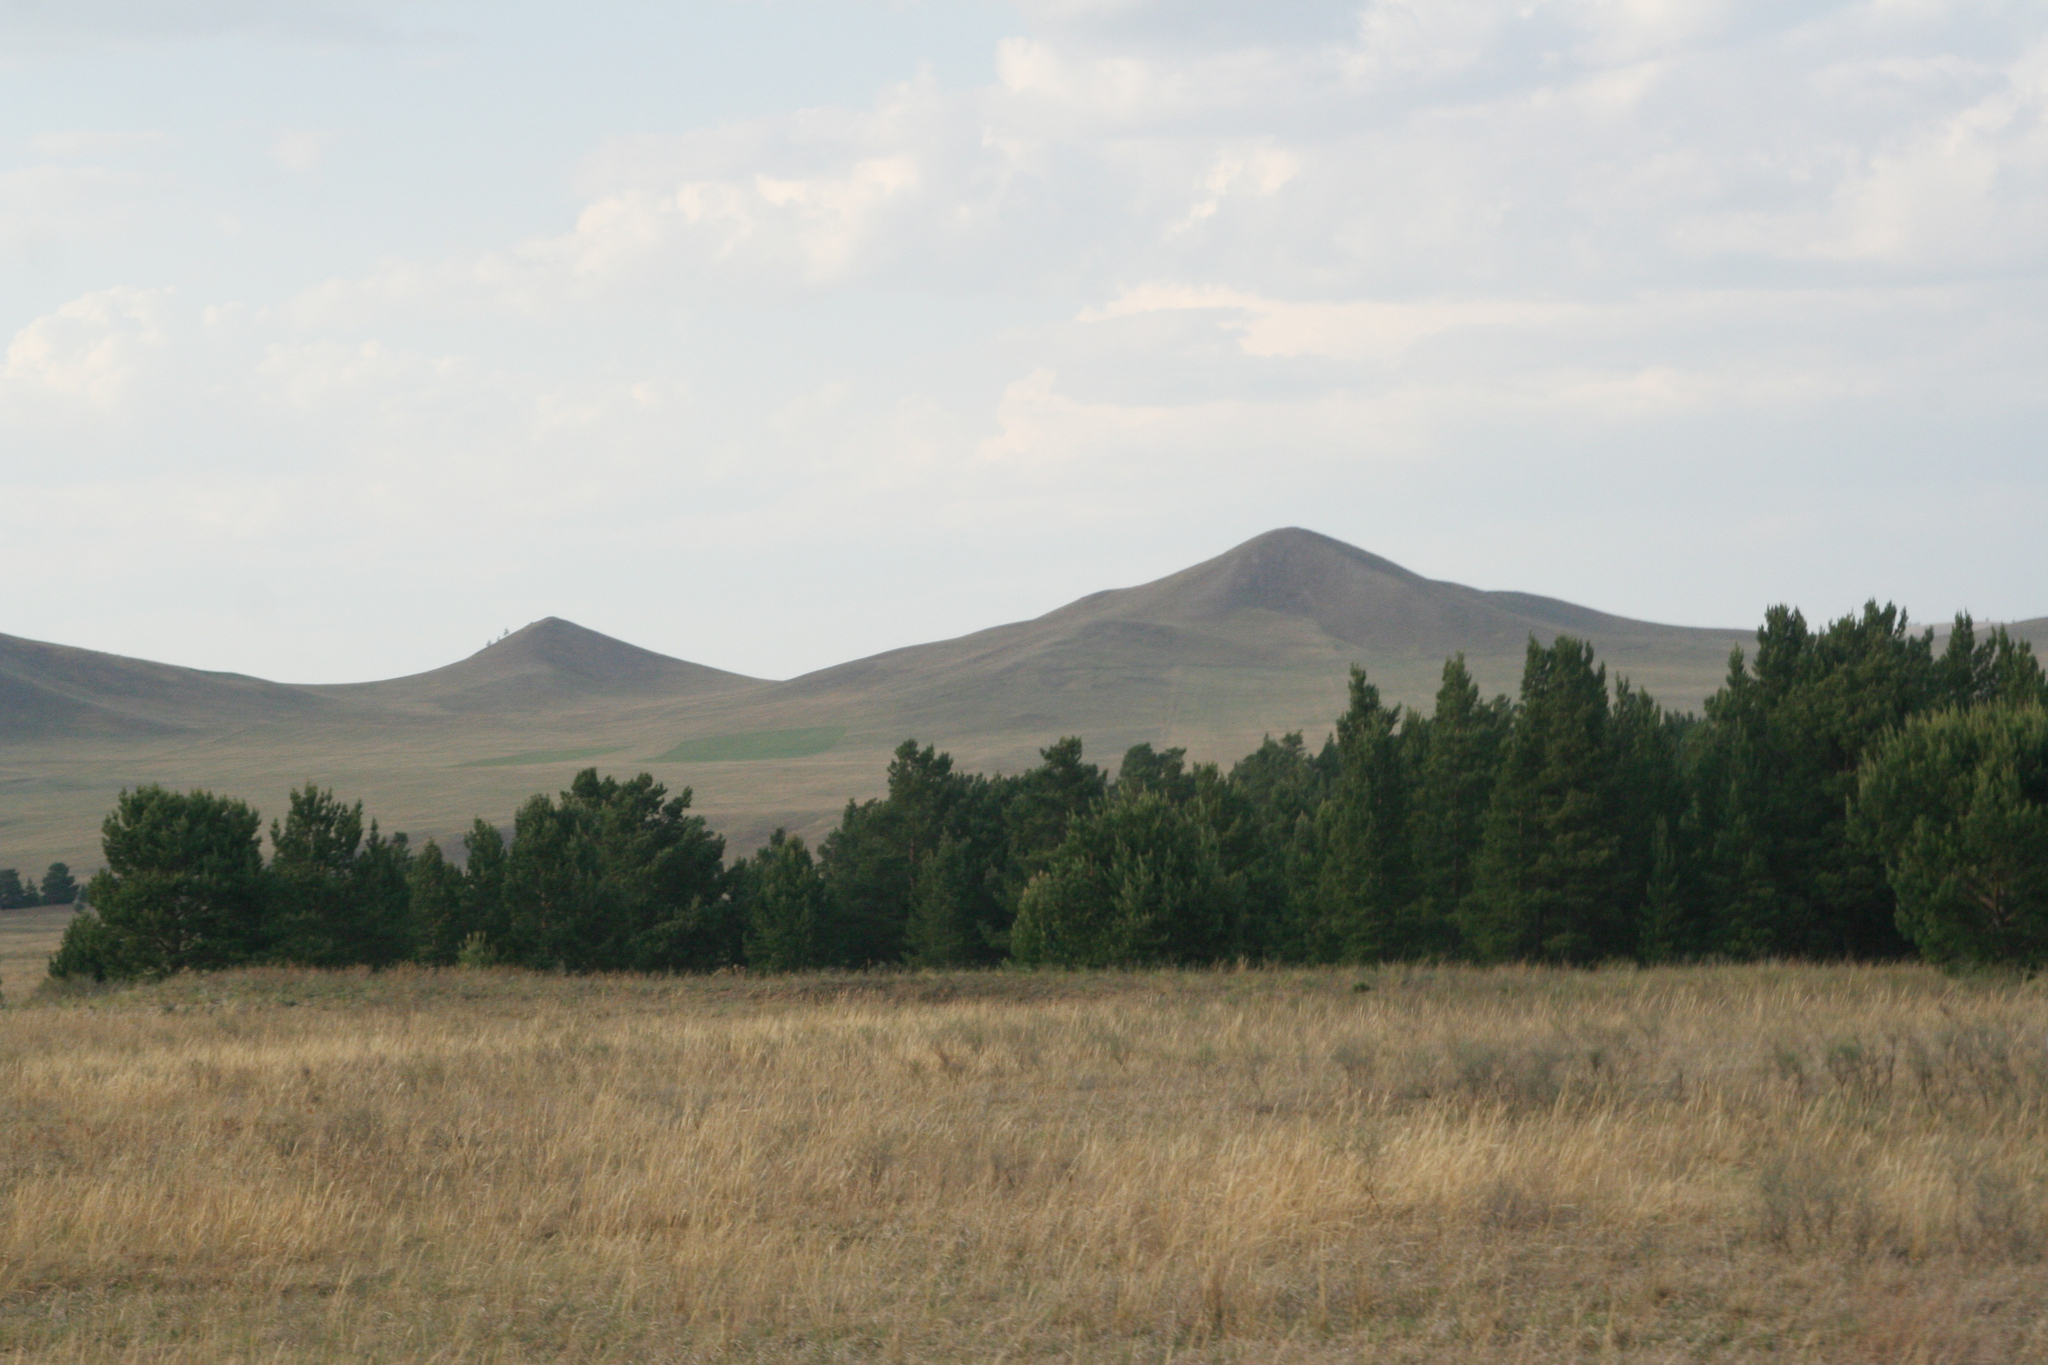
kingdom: Plantae
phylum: Tracheophyta
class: Pinopsida
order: Pinales
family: Pinaceae
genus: Pinus
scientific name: Pinus sylvestris
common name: Scots pine
